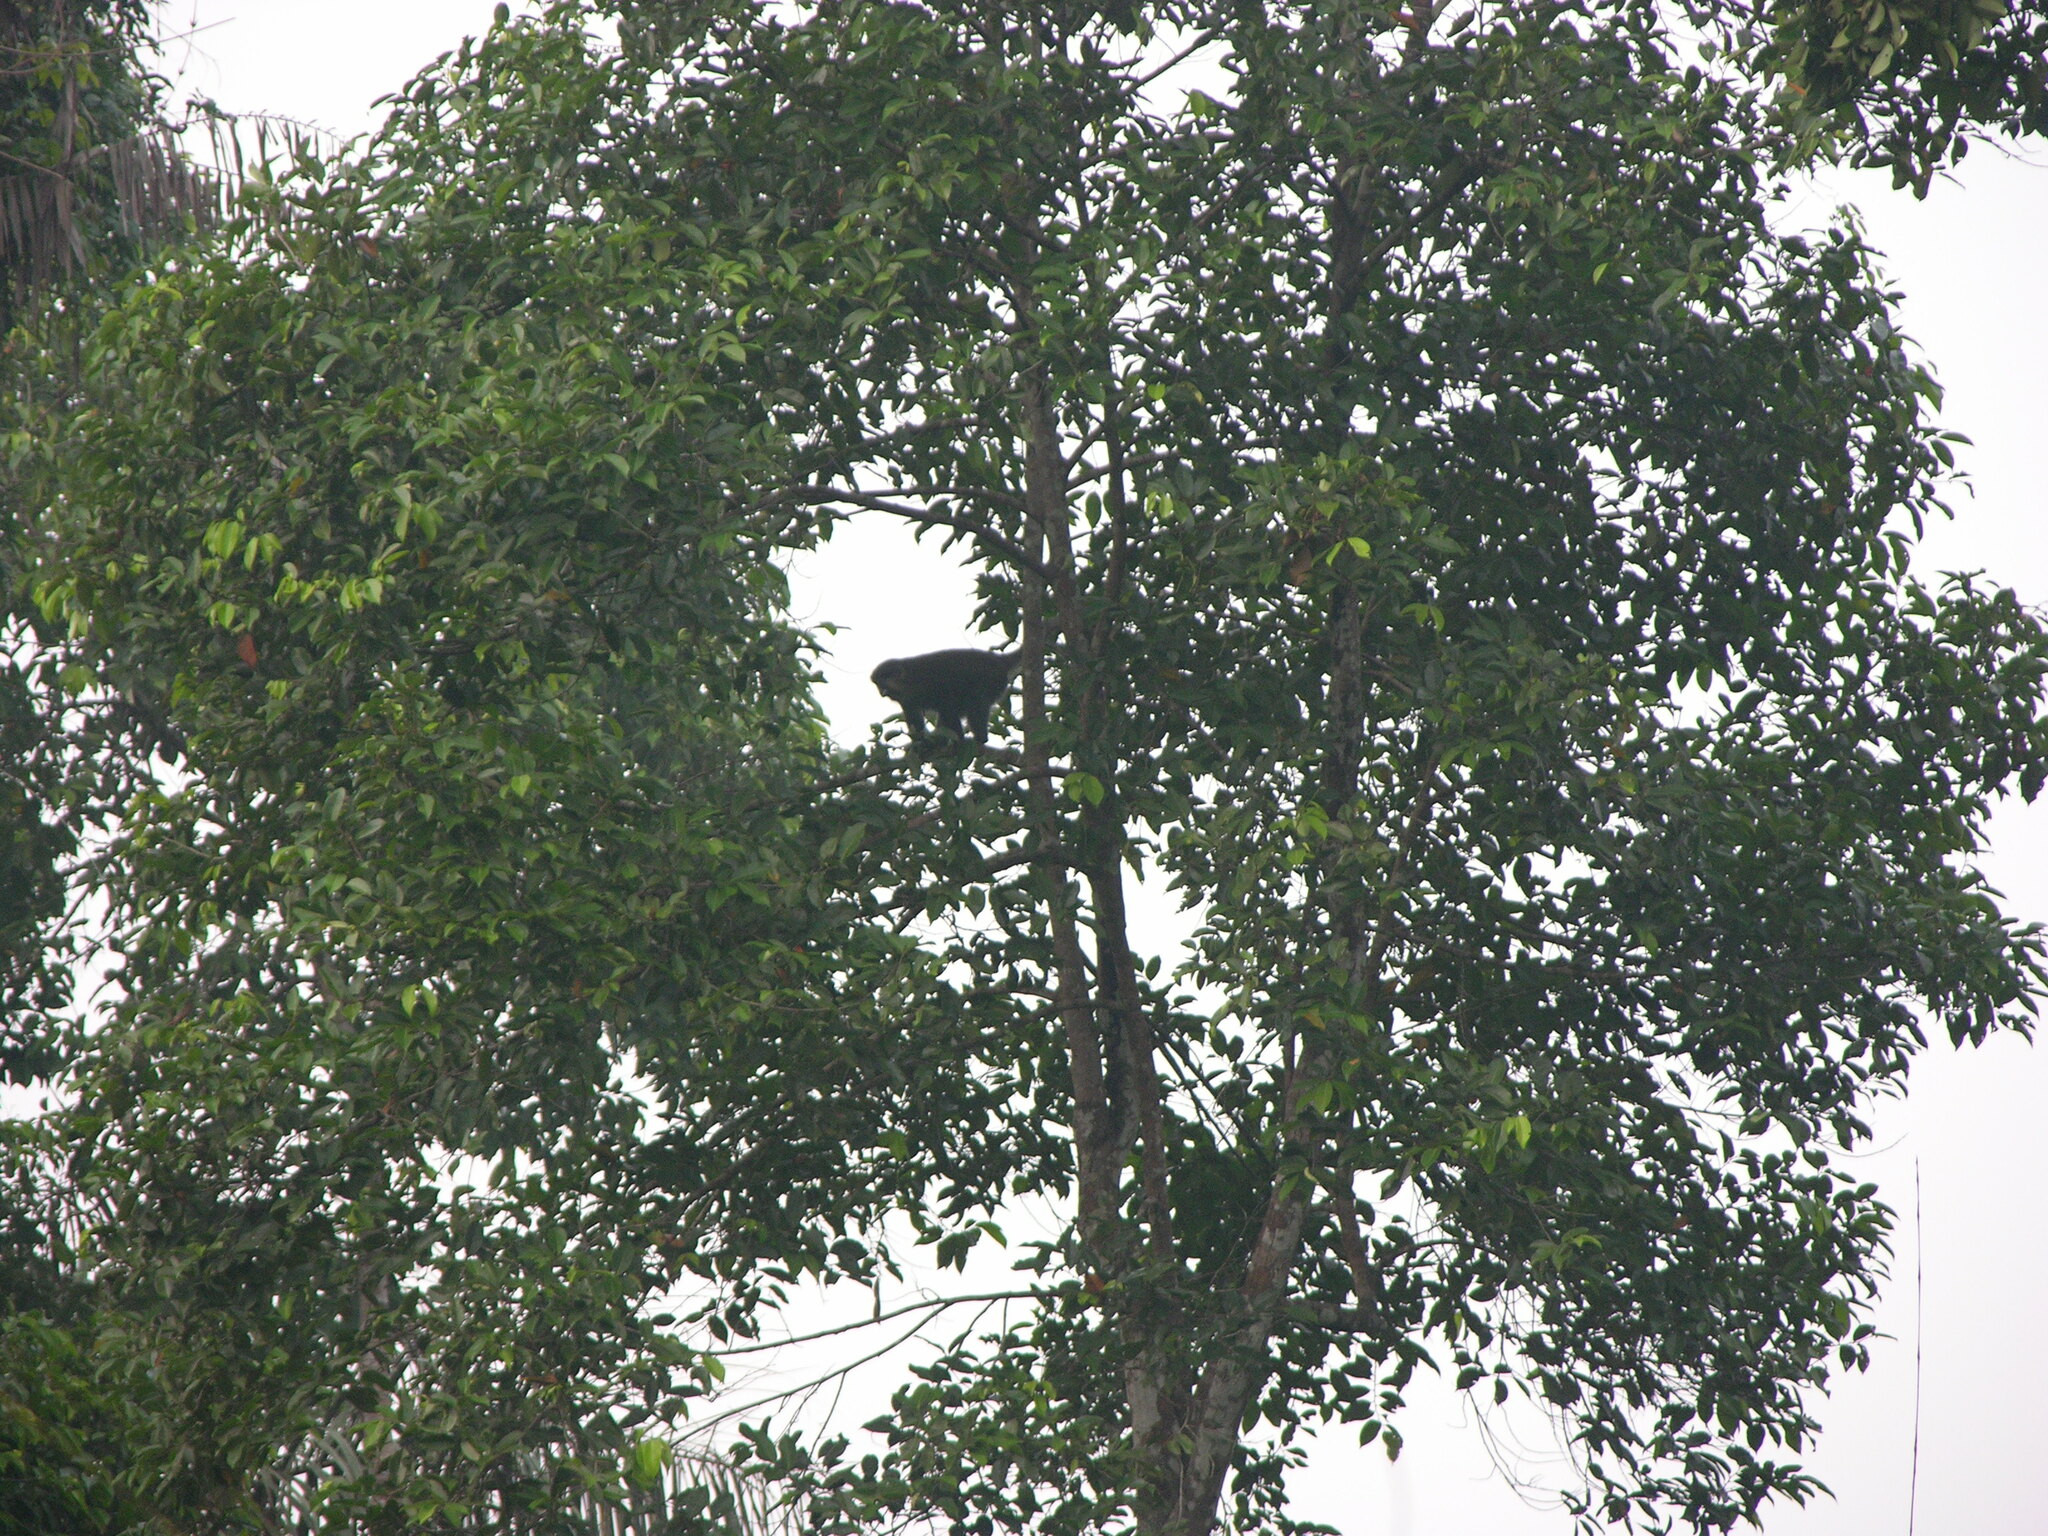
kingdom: Animalia
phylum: Chordata
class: Mammalia
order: Primates
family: Cercopithecidae
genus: Cercopithecus
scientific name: Cercopithecus cephus
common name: Moustached guenon
